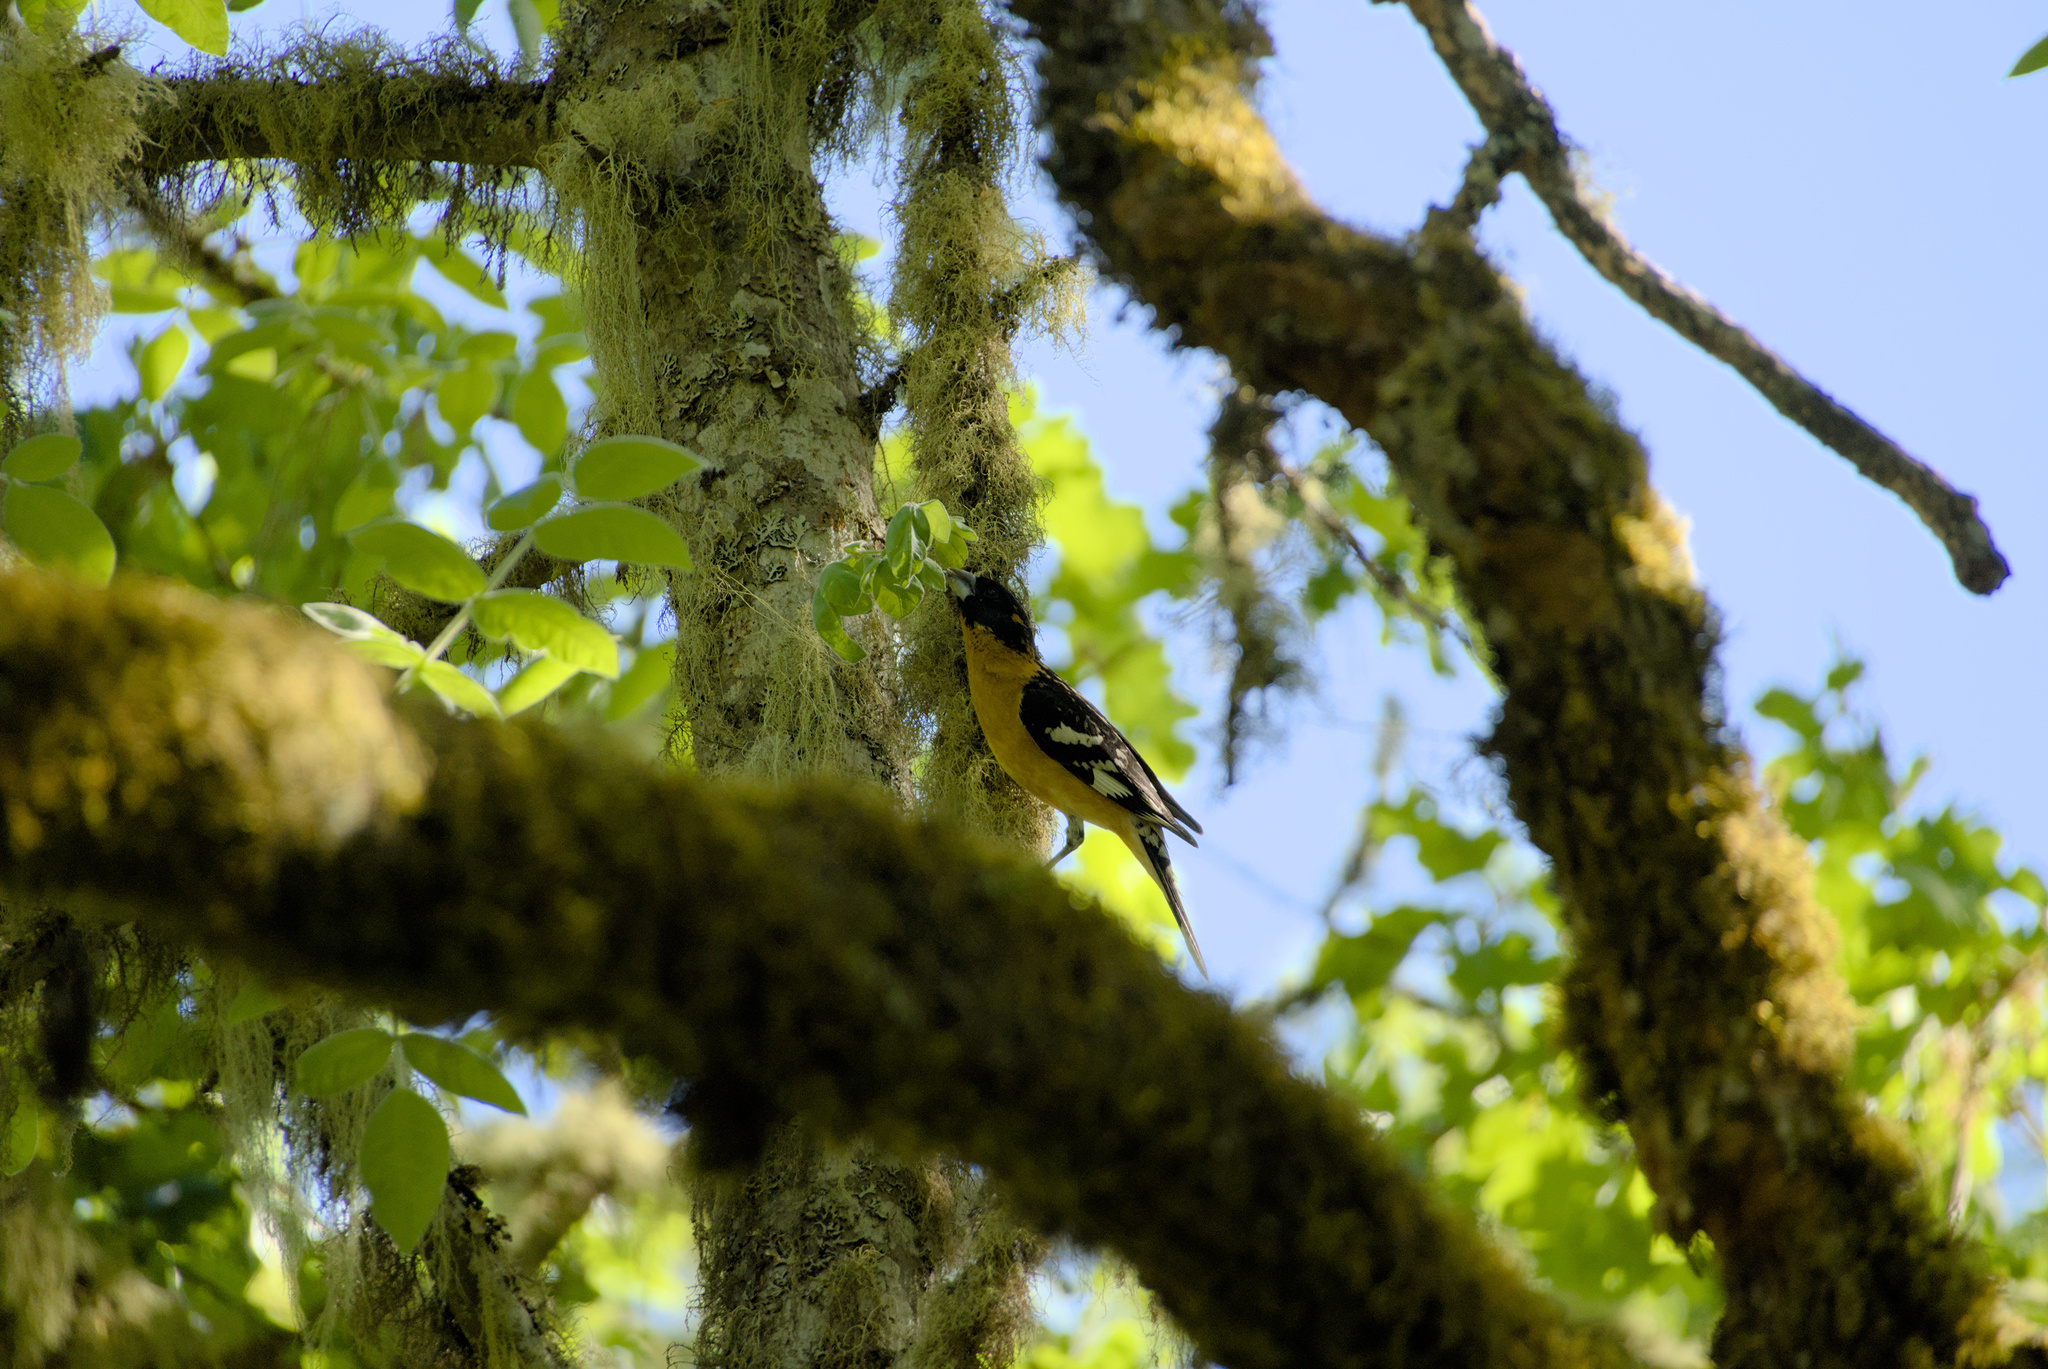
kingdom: Animalia
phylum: Chordata
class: Aves
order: Passeriformes
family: Cardinalidae
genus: Pheucticus
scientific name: Pheucticus melanocephalus
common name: Black-headed grosbeak
